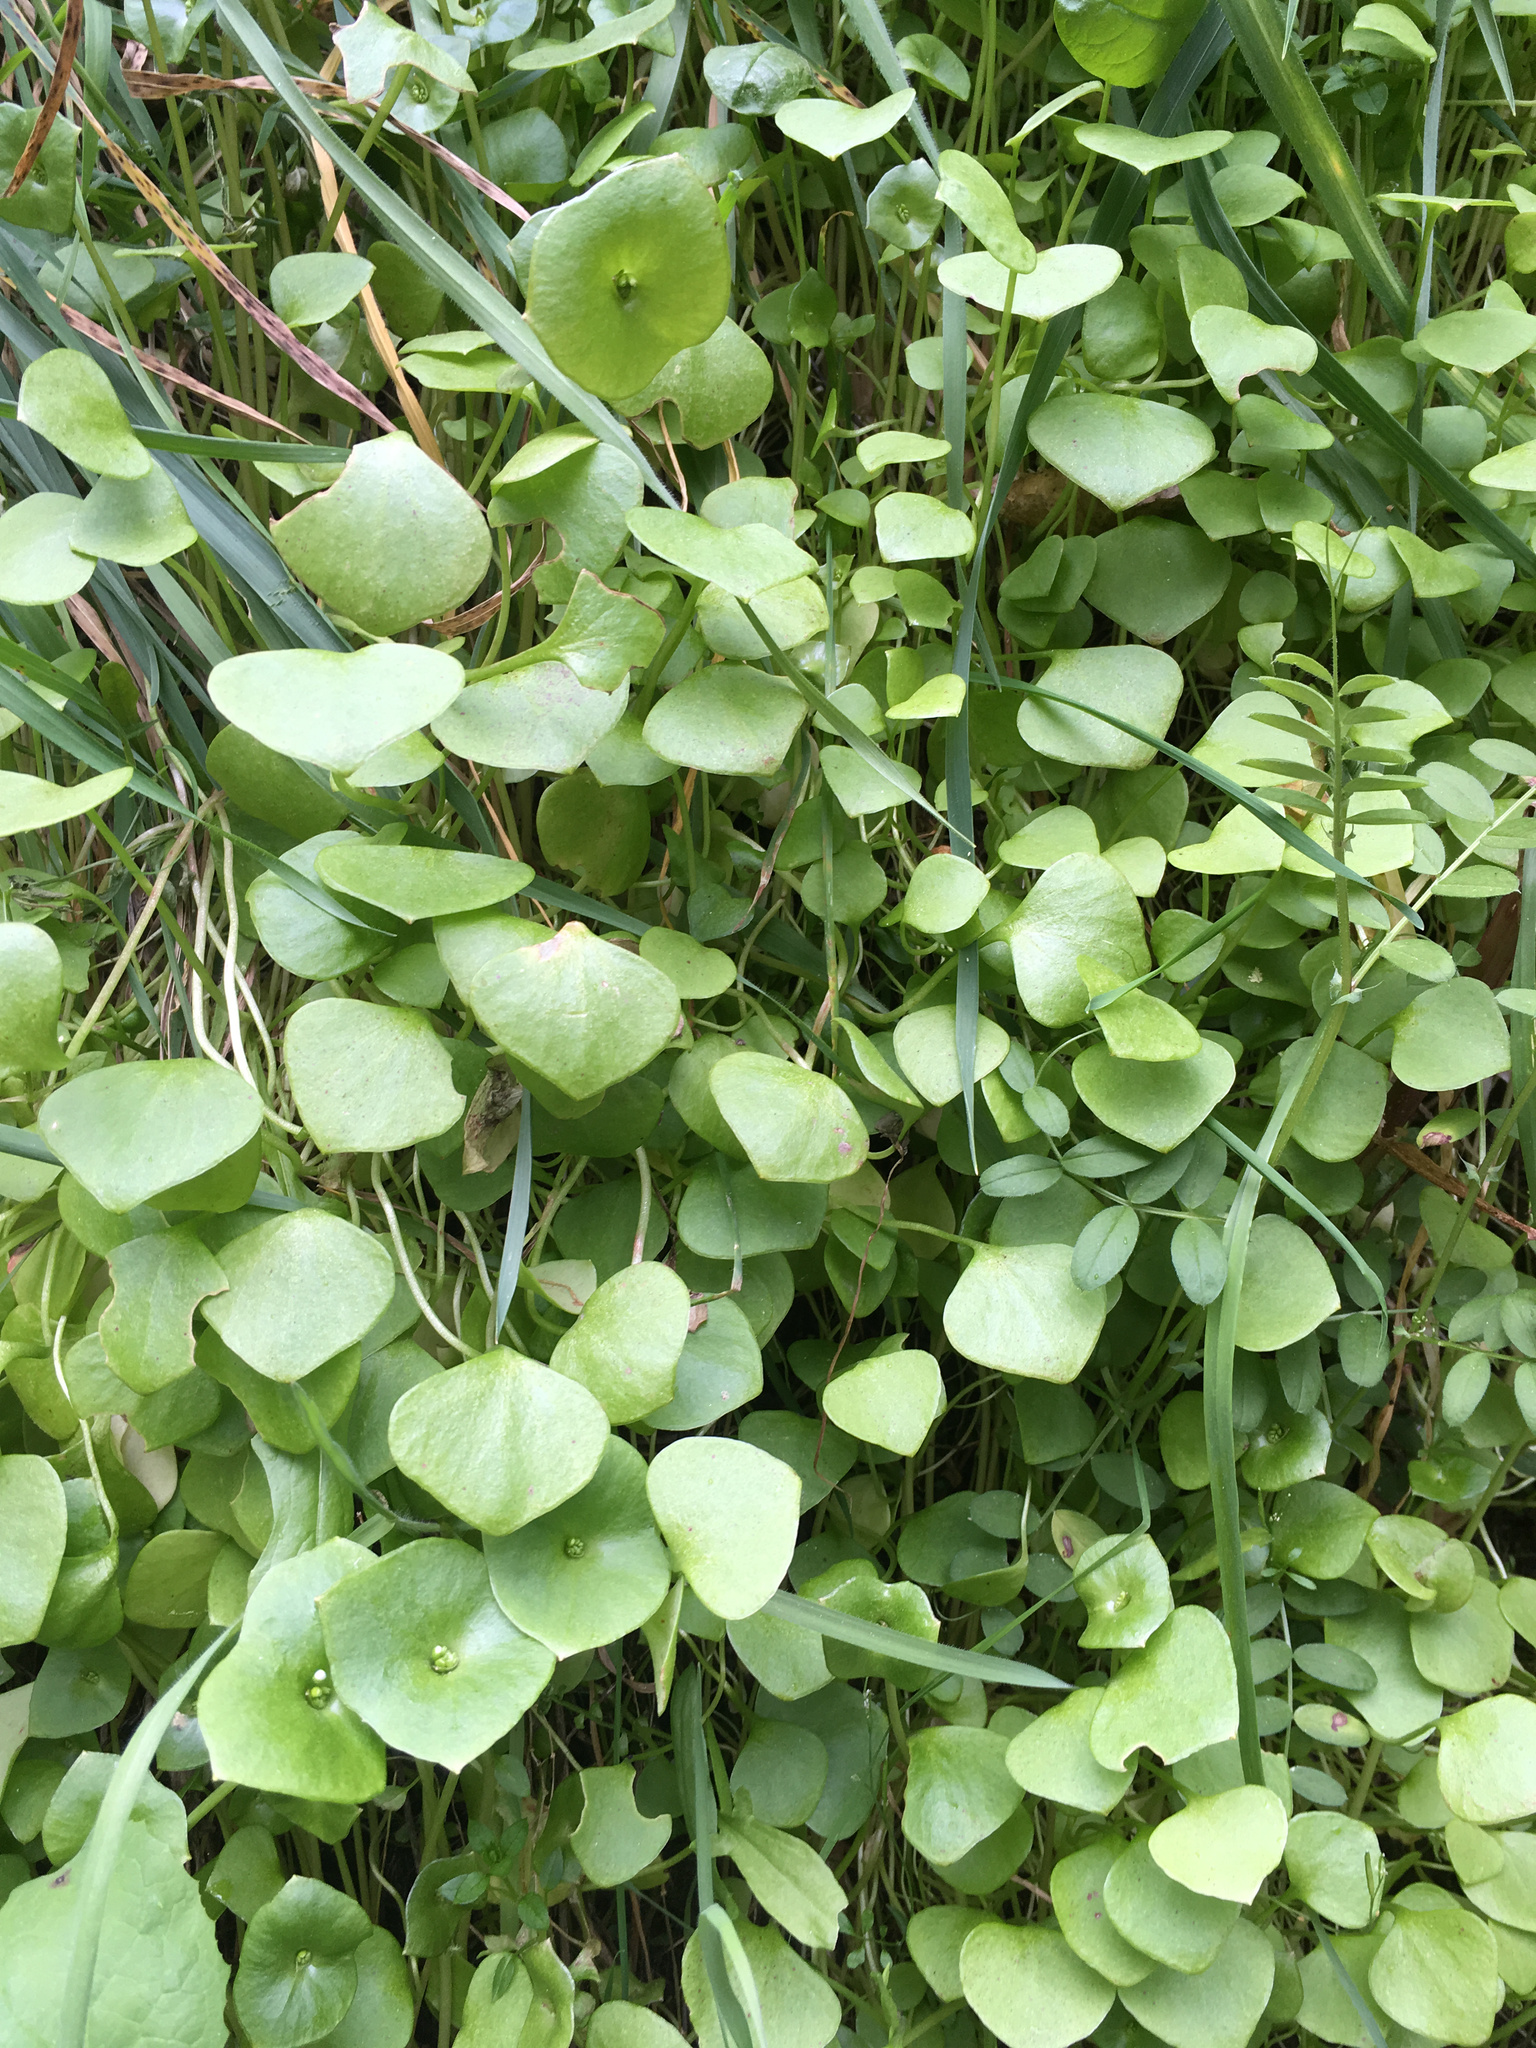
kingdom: Plantae
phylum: Tracheophyta
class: Magnoliopsida
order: Caryophyllales
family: Montiaceae
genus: Claytonia
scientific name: Claytonia perfoliata
